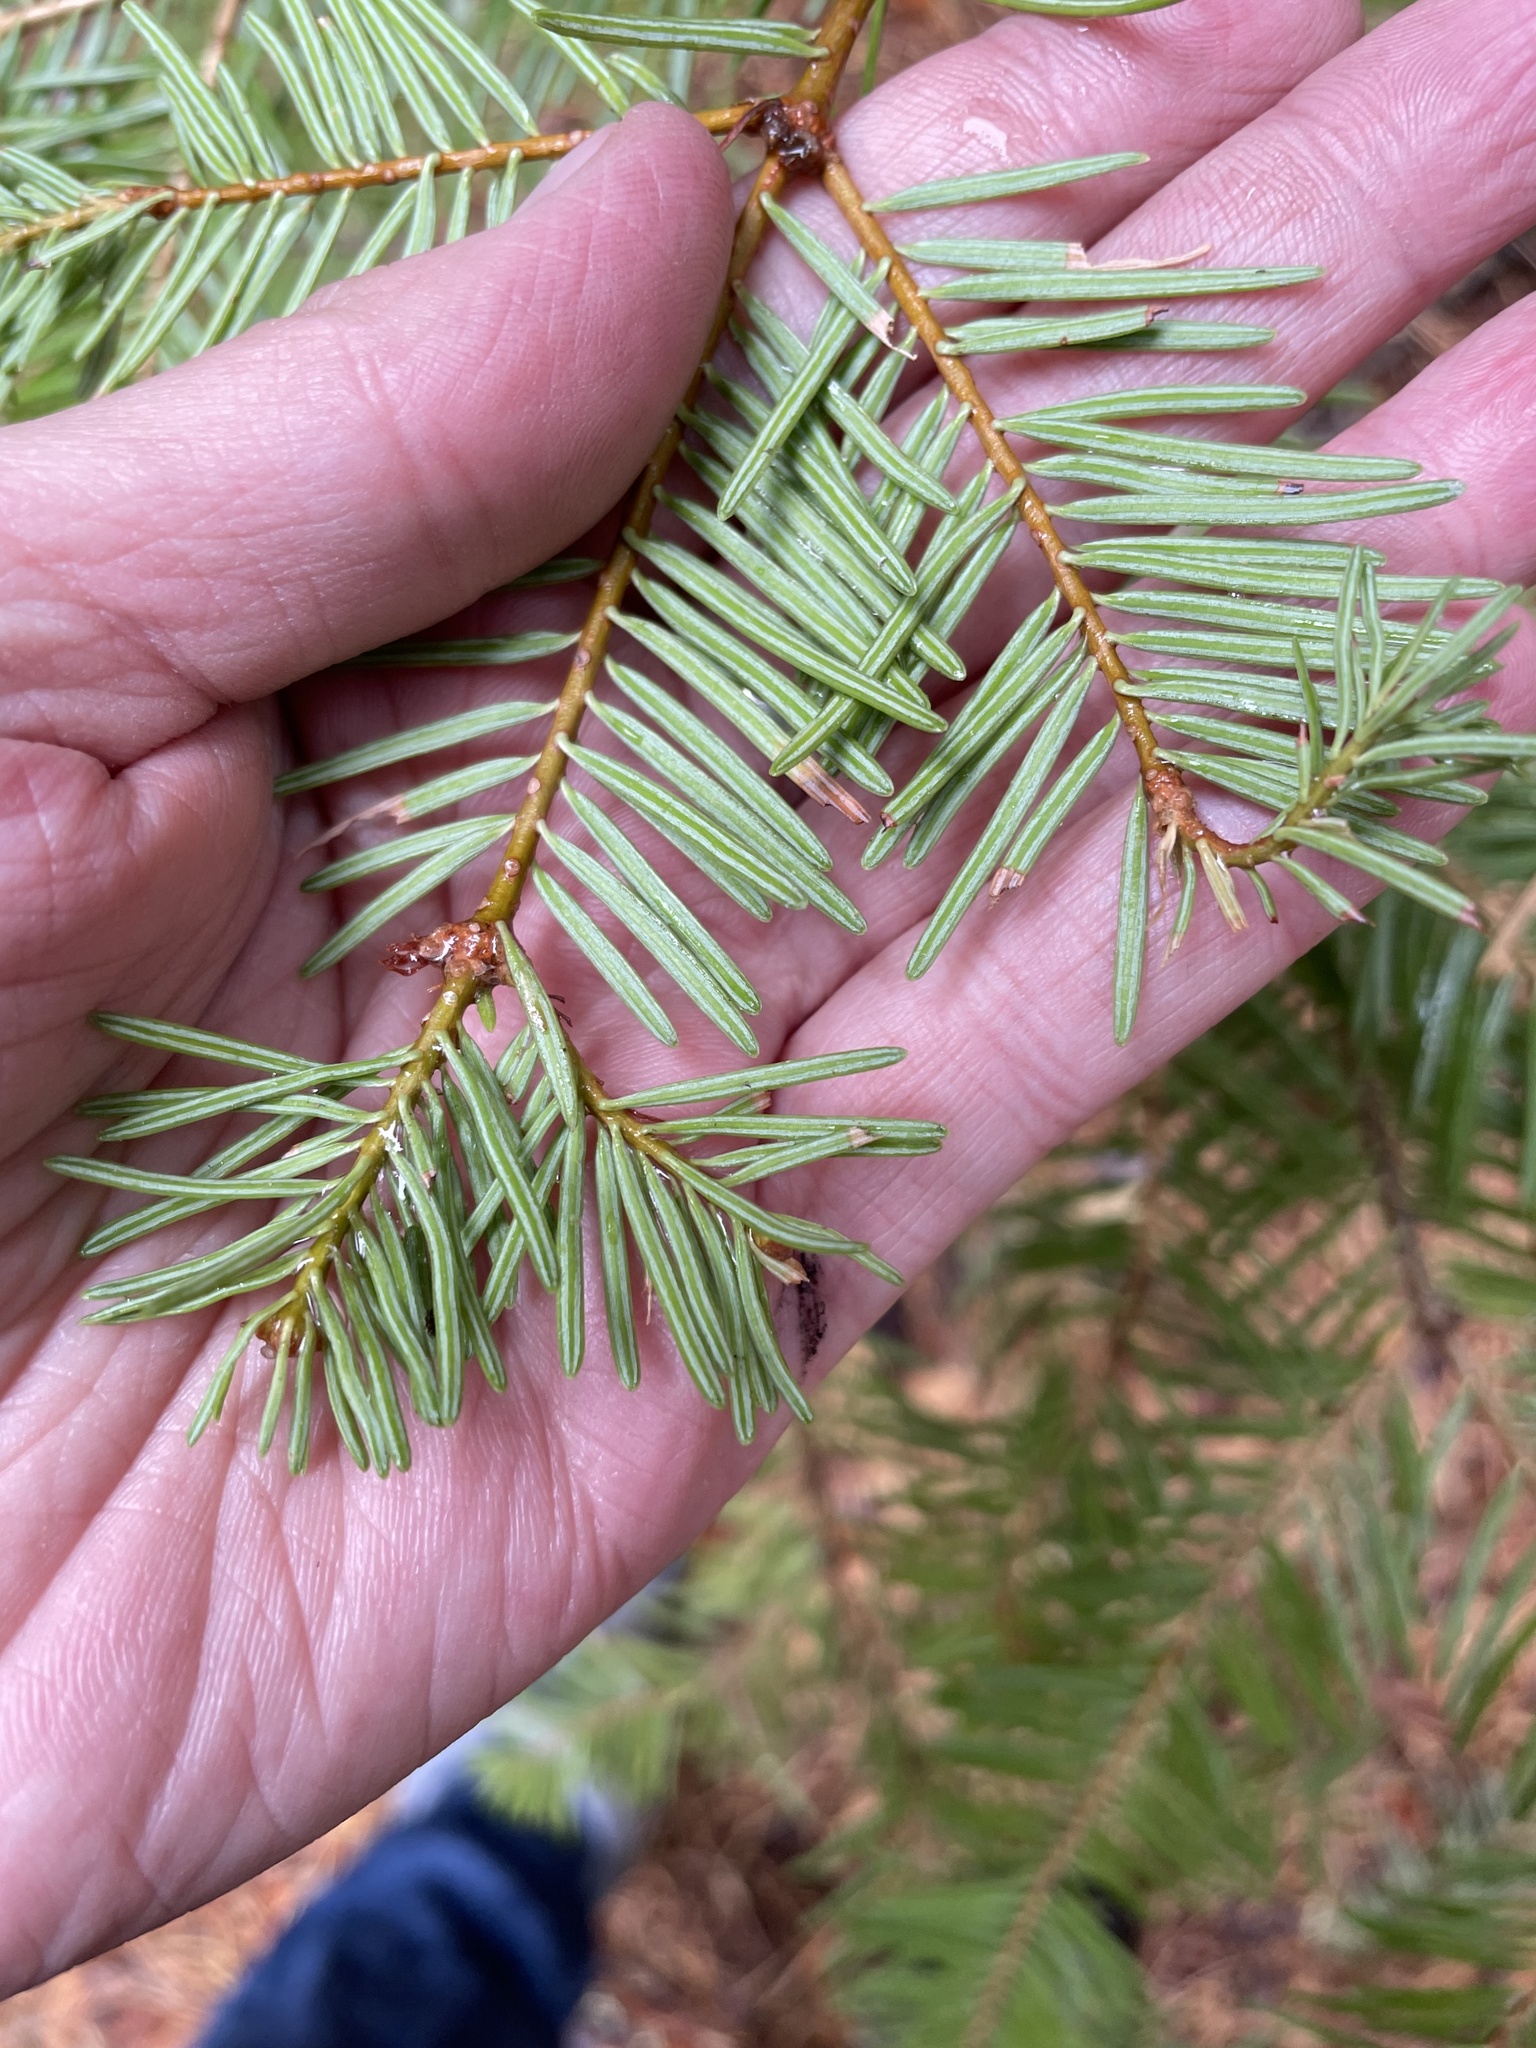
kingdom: Plantae
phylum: Tracheophyta
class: Pinopsida
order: Pinales
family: Pinaceae
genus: Abies
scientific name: Abies concolor
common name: Colorado fir
